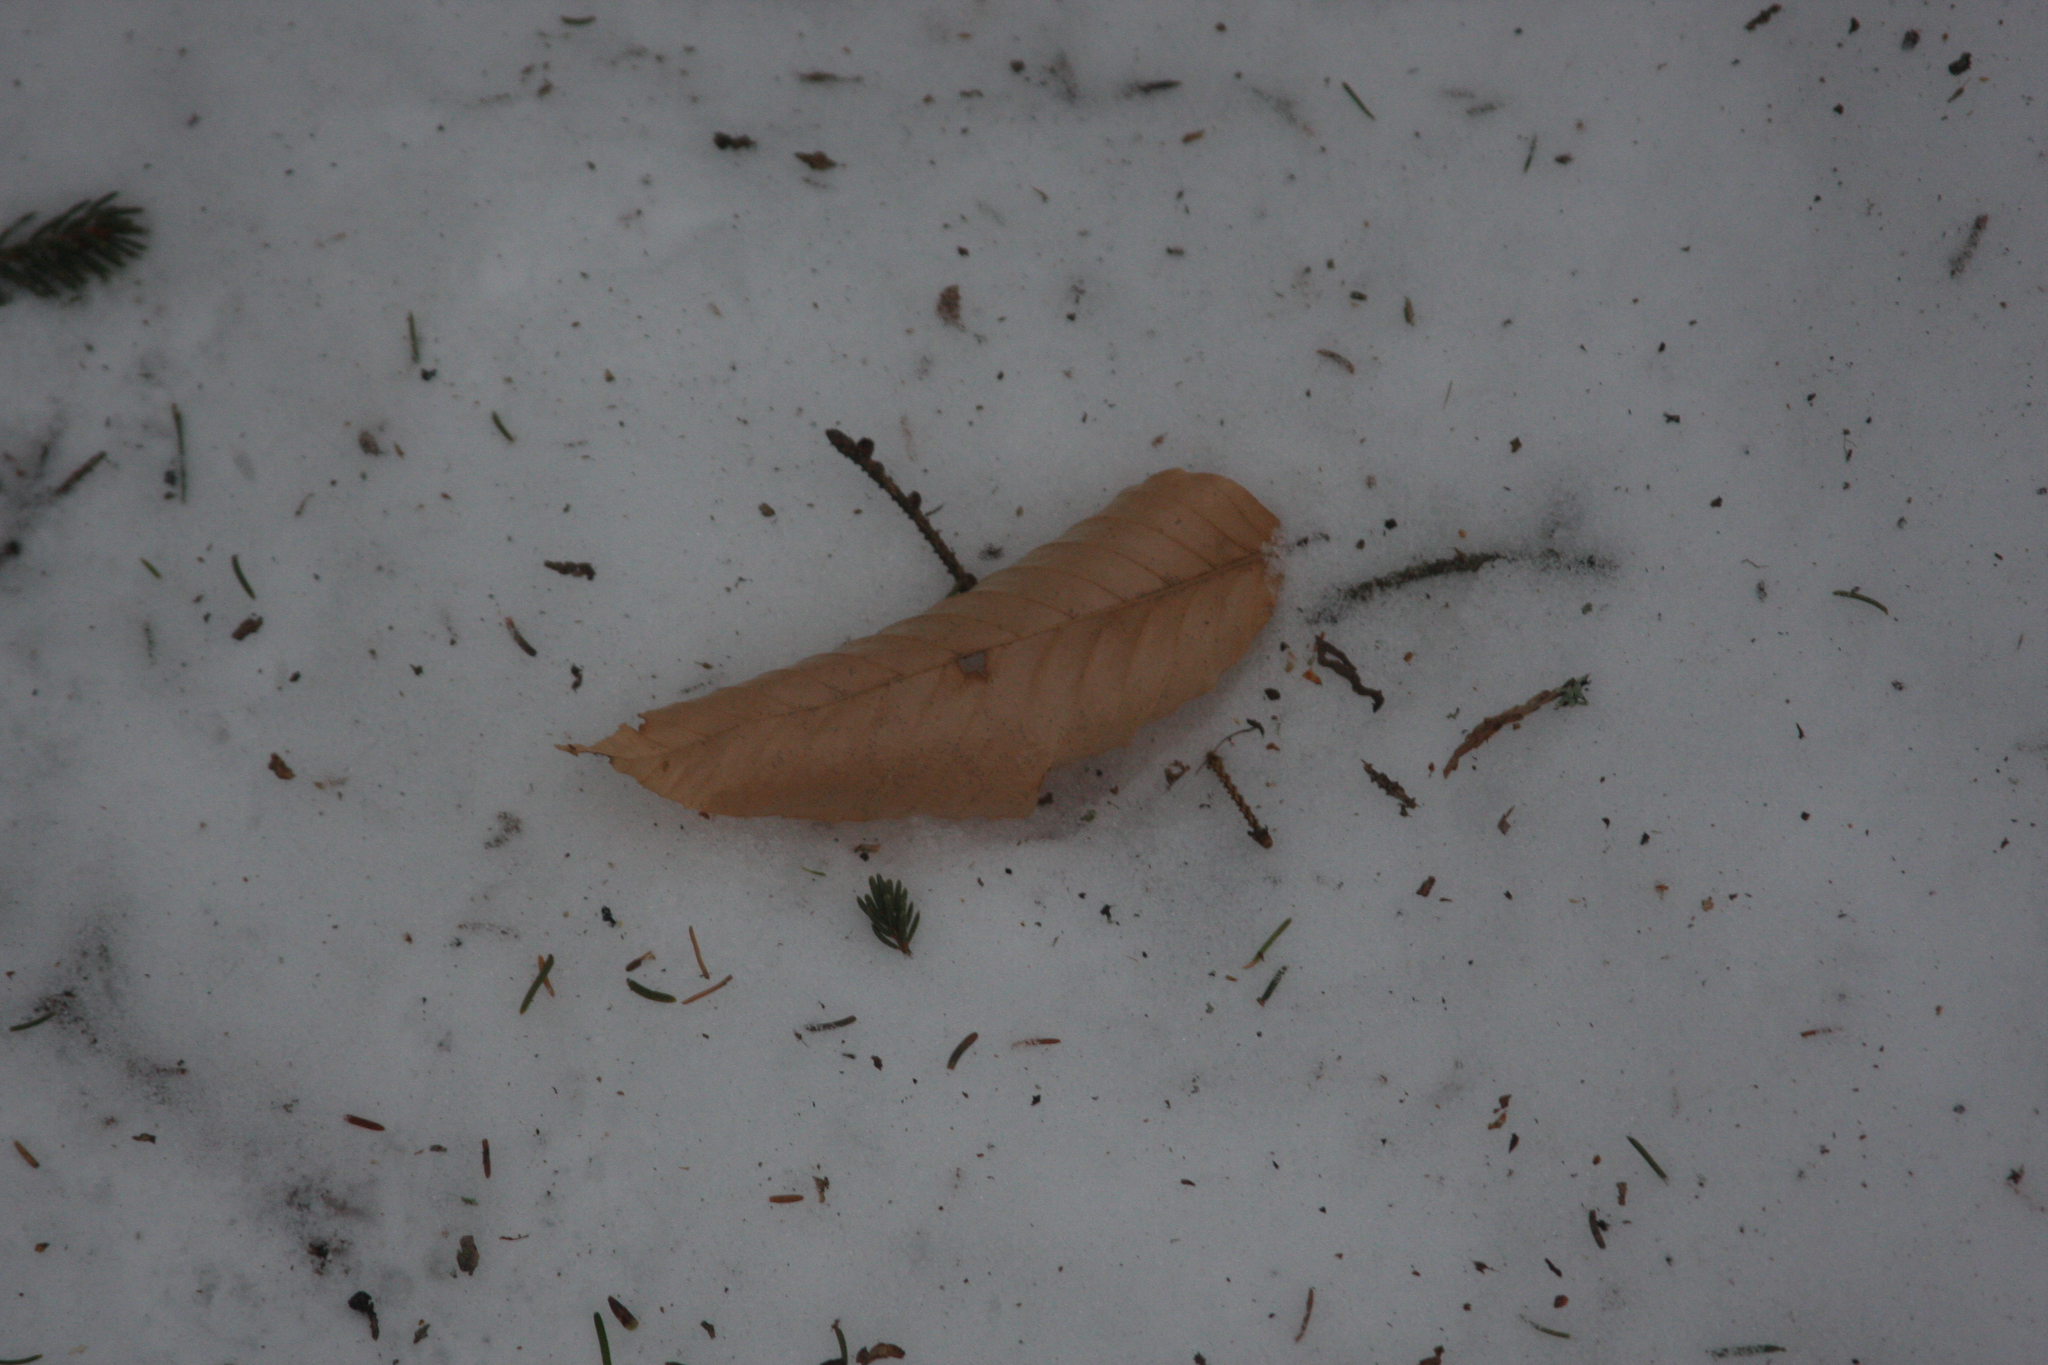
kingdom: Plantae
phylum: Tracheophyta
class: Magnoliopsida
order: Fagales
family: Fagaceae
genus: Fagus
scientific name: Fagus grandifolia
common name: American beech
